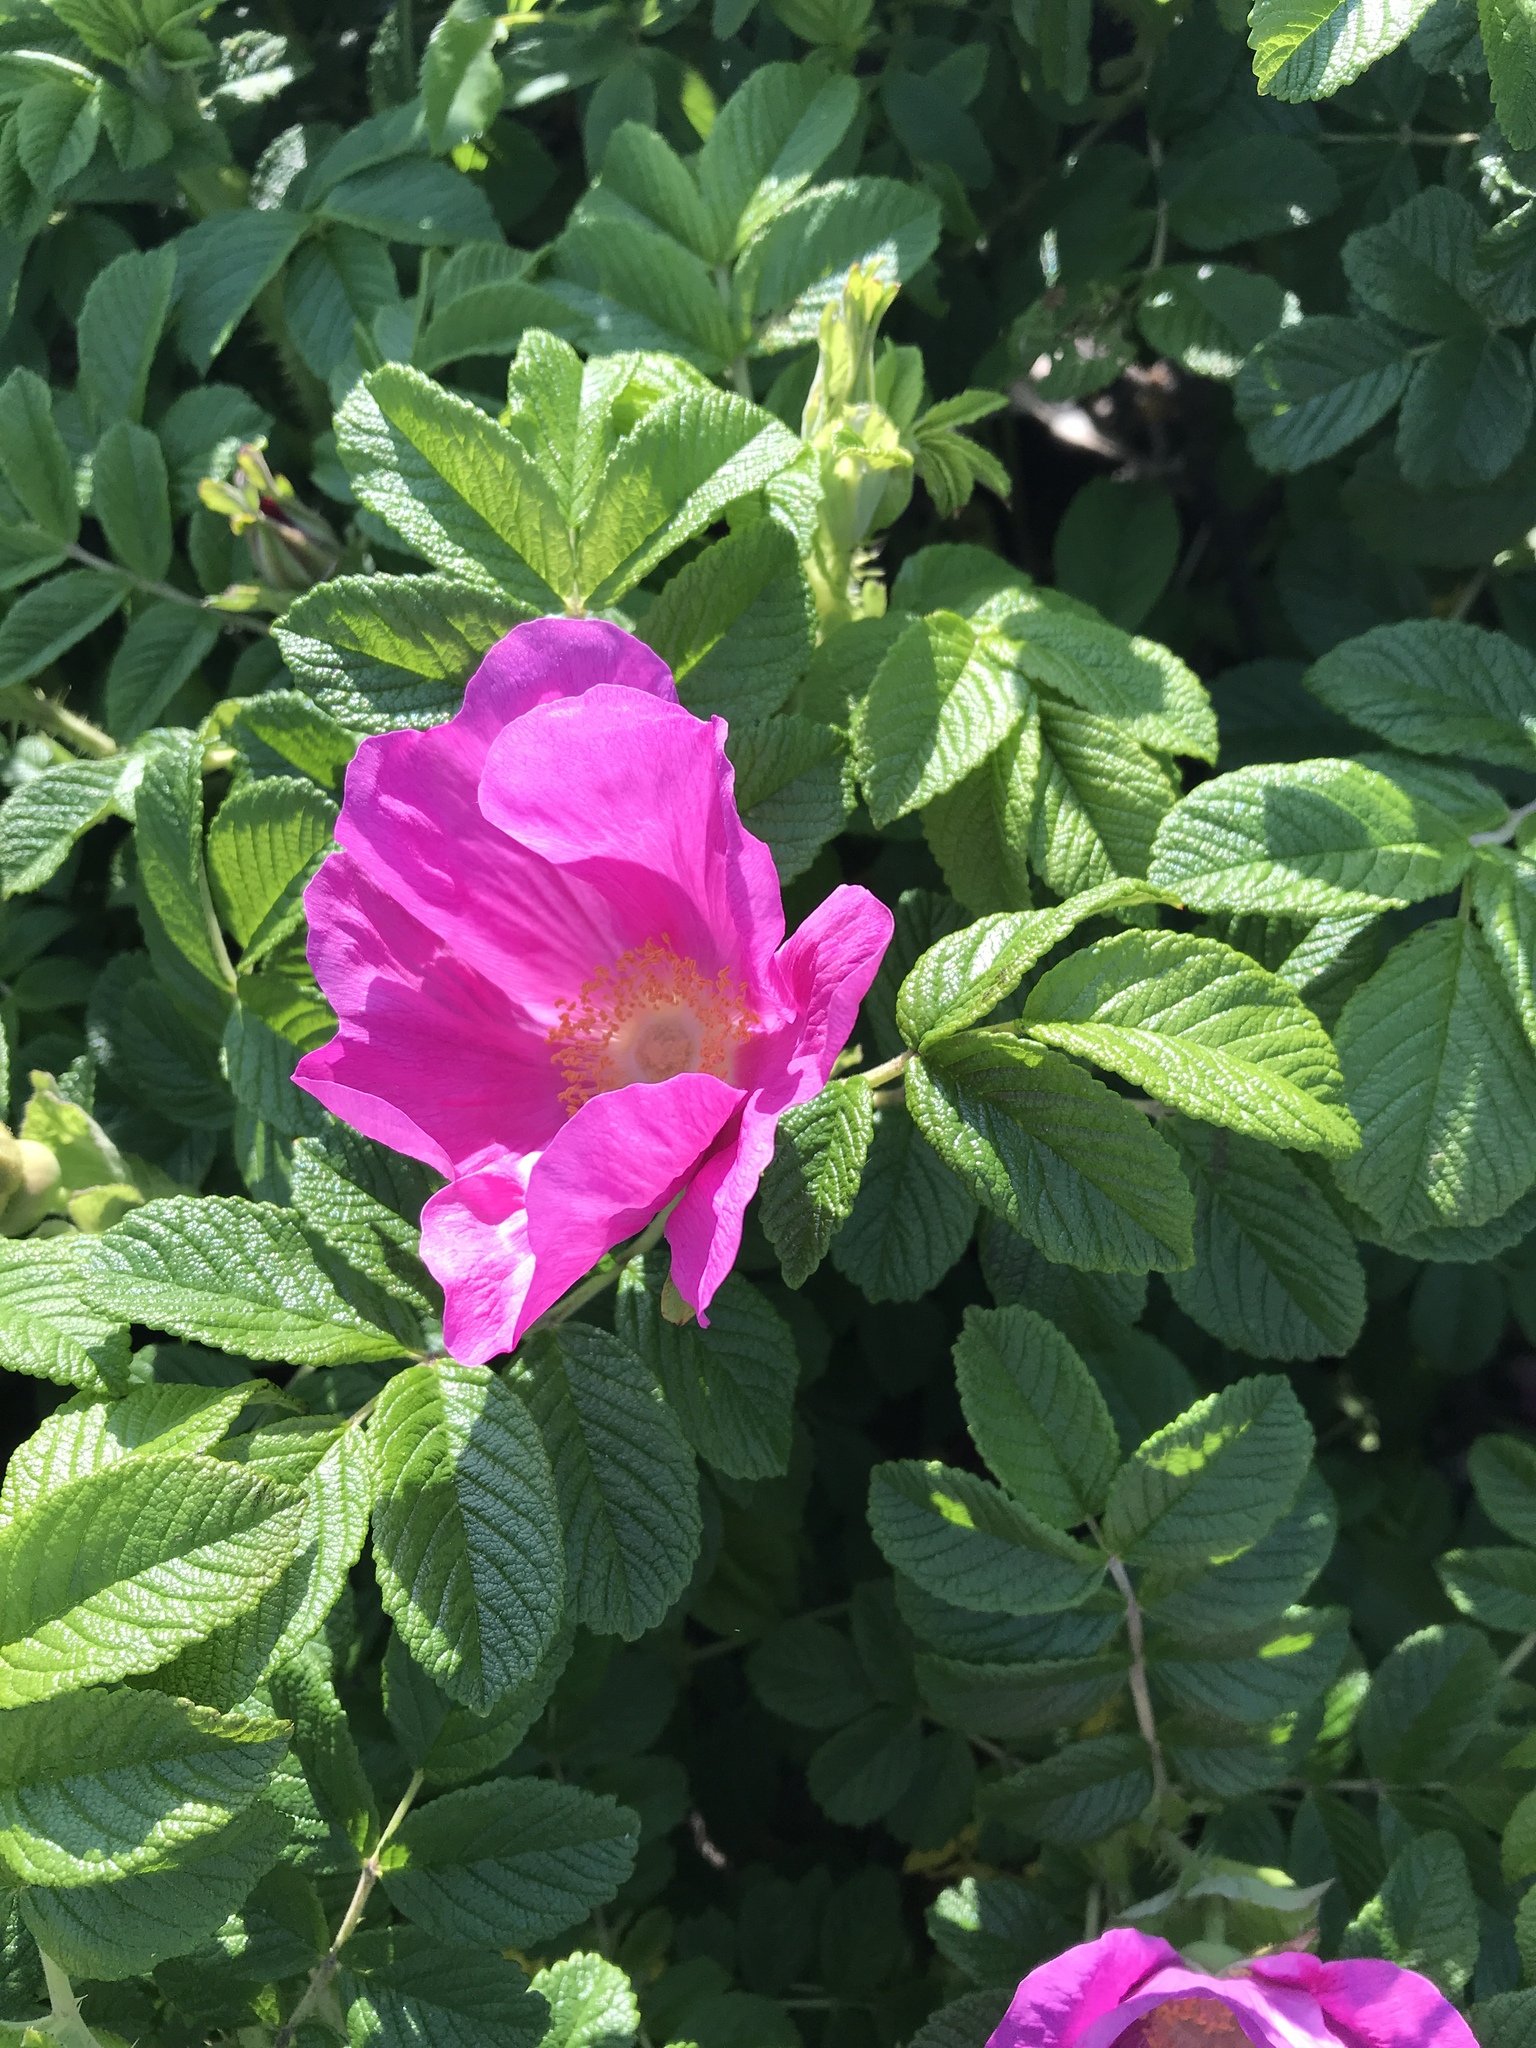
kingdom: Plantae
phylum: Tracheophyta
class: Magnoliopsida
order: Rosales
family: Rosaceae
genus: Rosa
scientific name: Rosa rugosa
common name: Japanese rose
